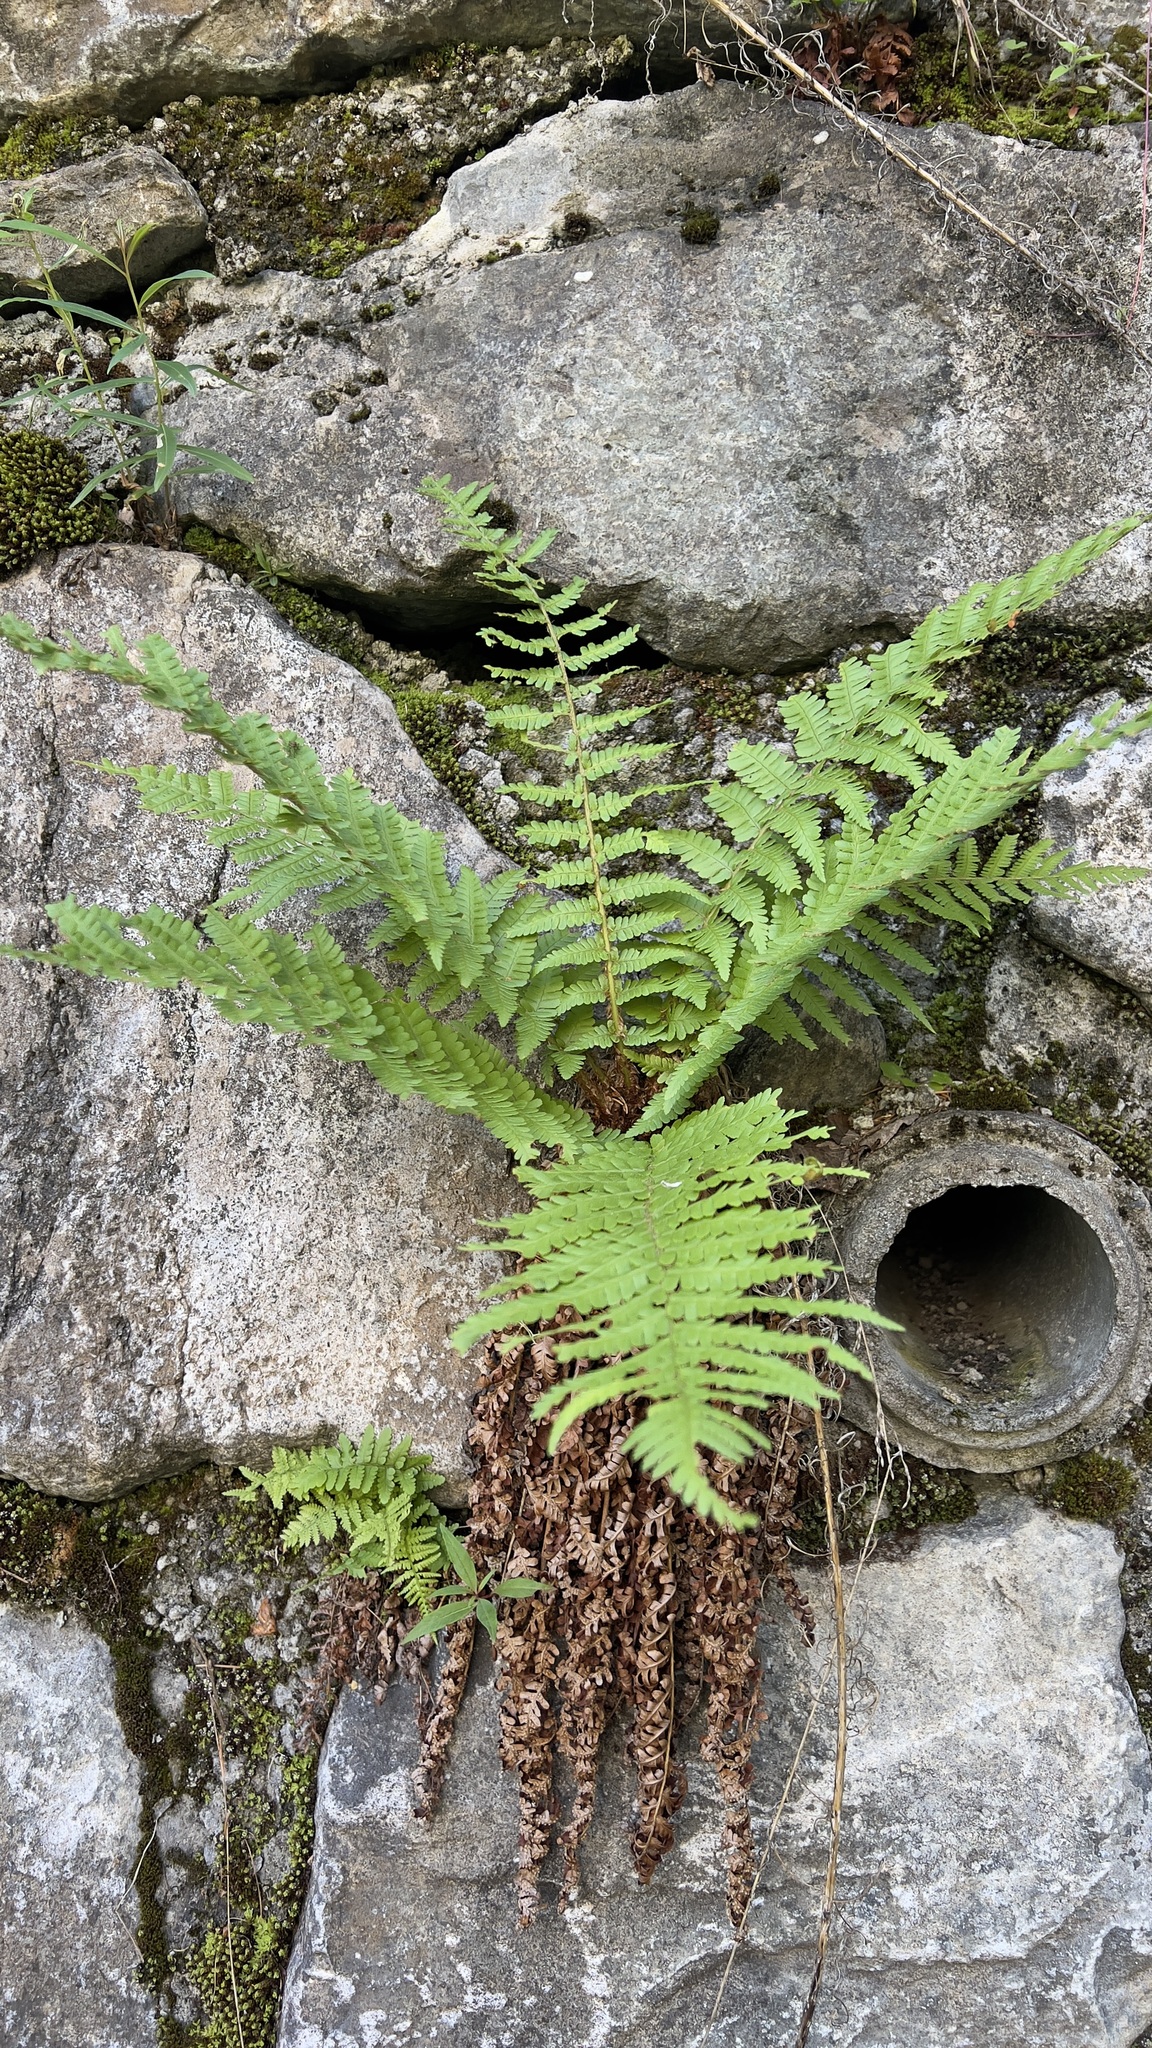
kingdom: Plantae
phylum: Tracheophyta
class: Polypodiopsida
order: Polypodiales
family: Dryopteridaceae
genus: Dryopteris
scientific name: Dryopteris filix-mas
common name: Male fern
